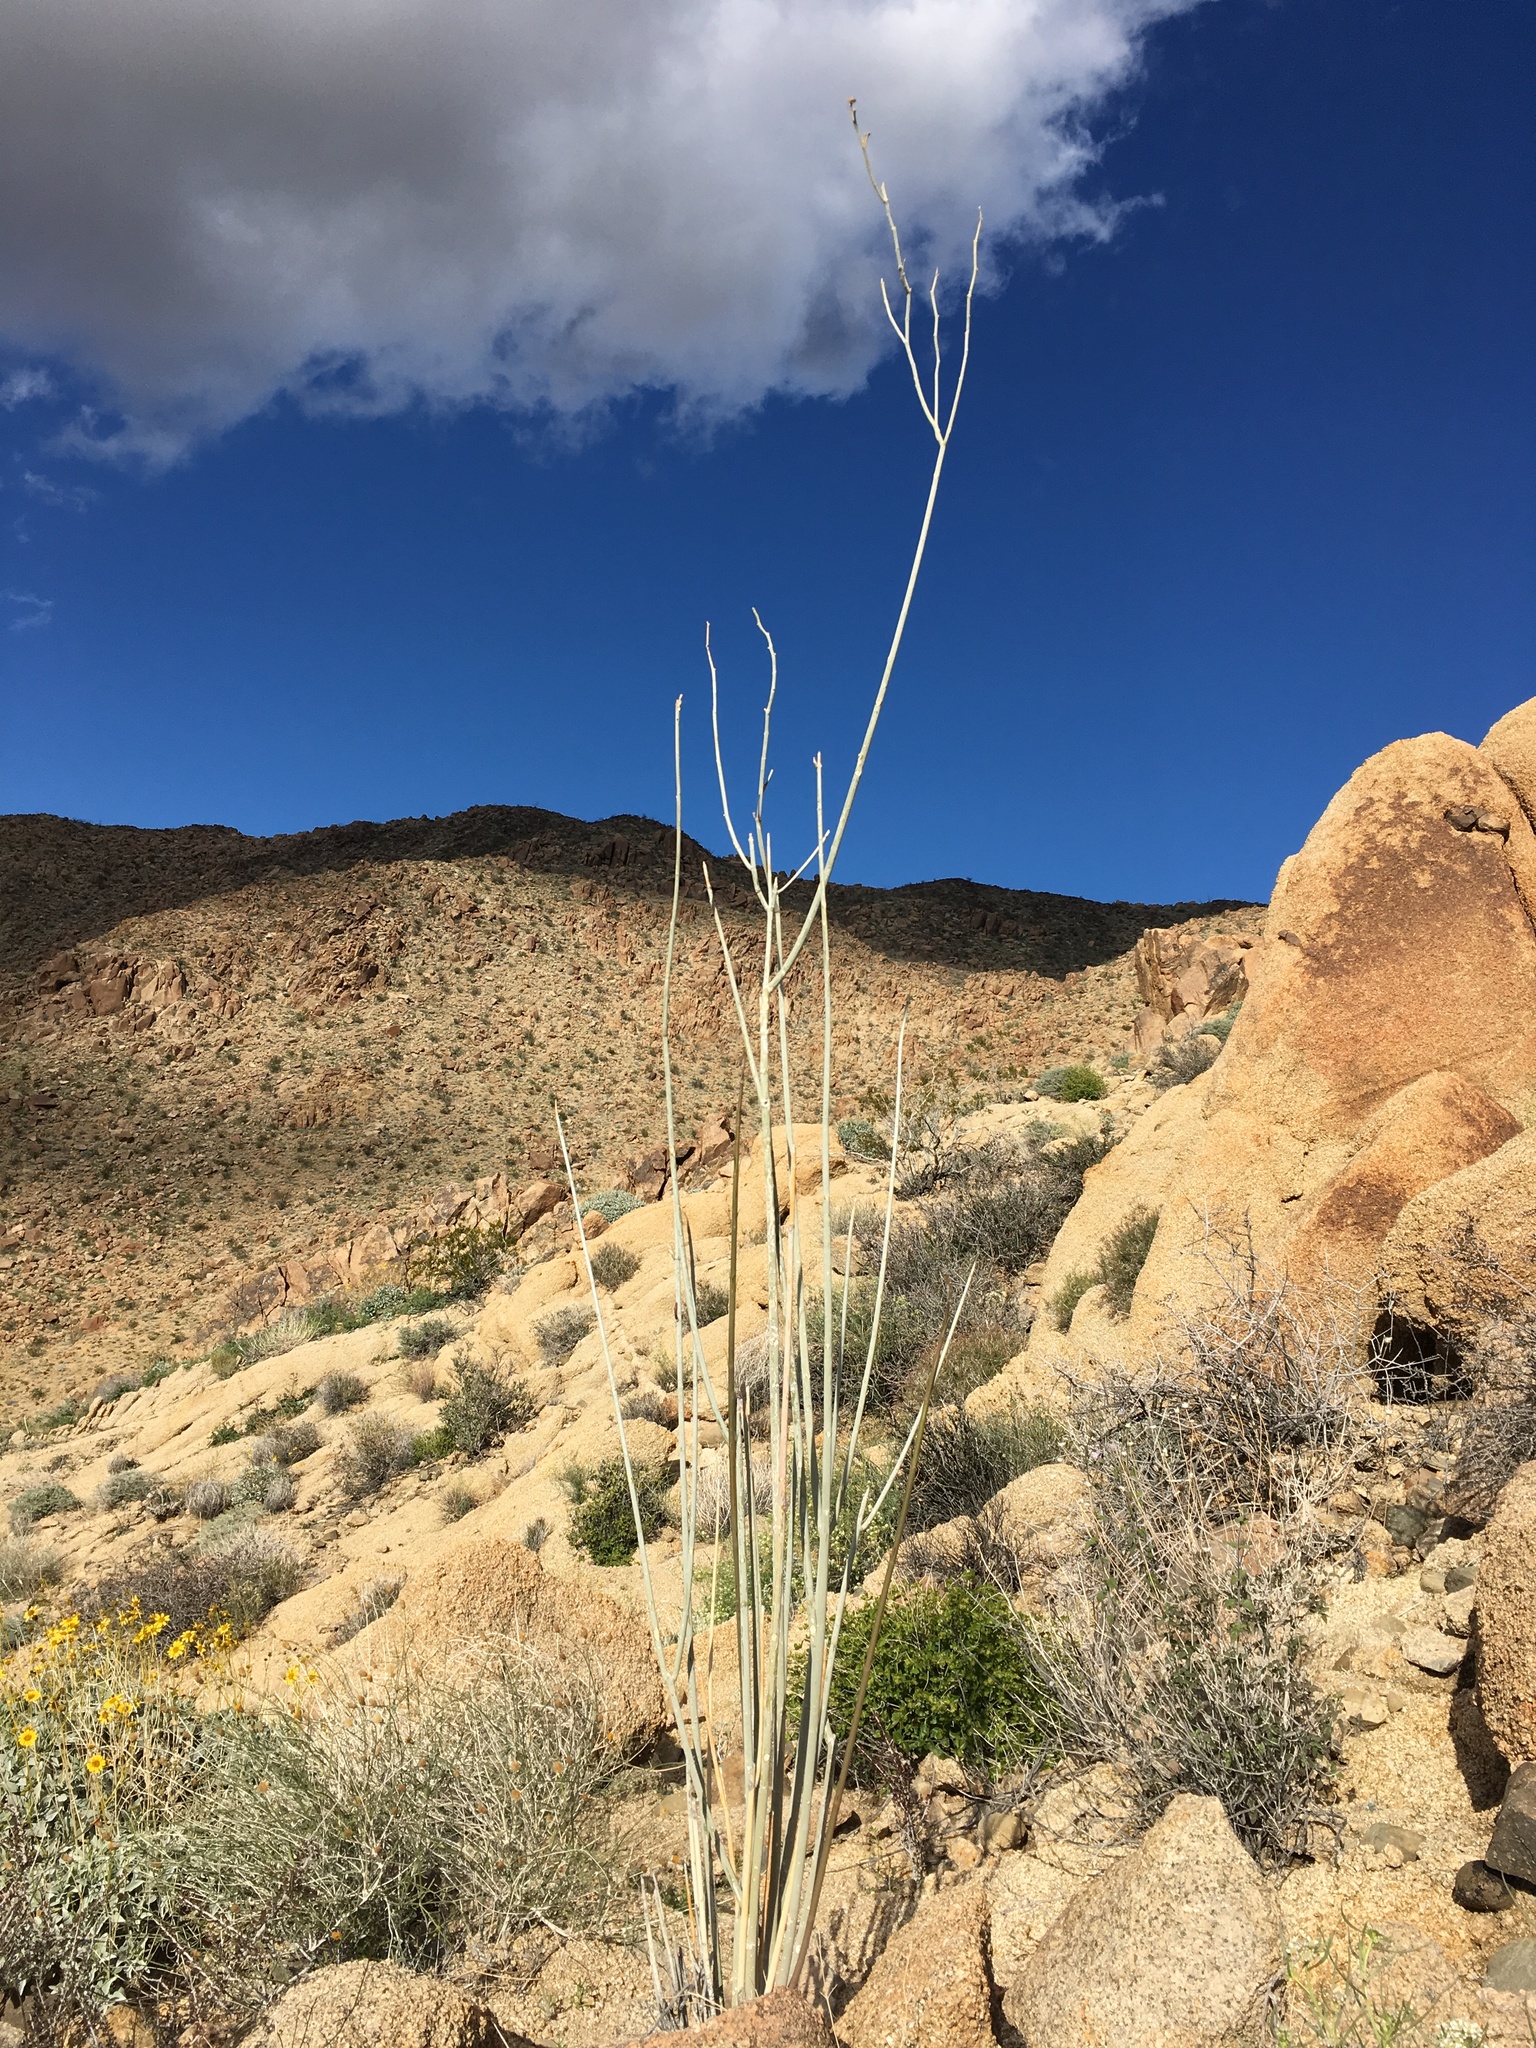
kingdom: Plantae
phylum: Tracheophyta
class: Magnoliopsida
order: Gentianales
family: Apocynaceae
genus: Asclepias
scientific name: Asclepias albicans
